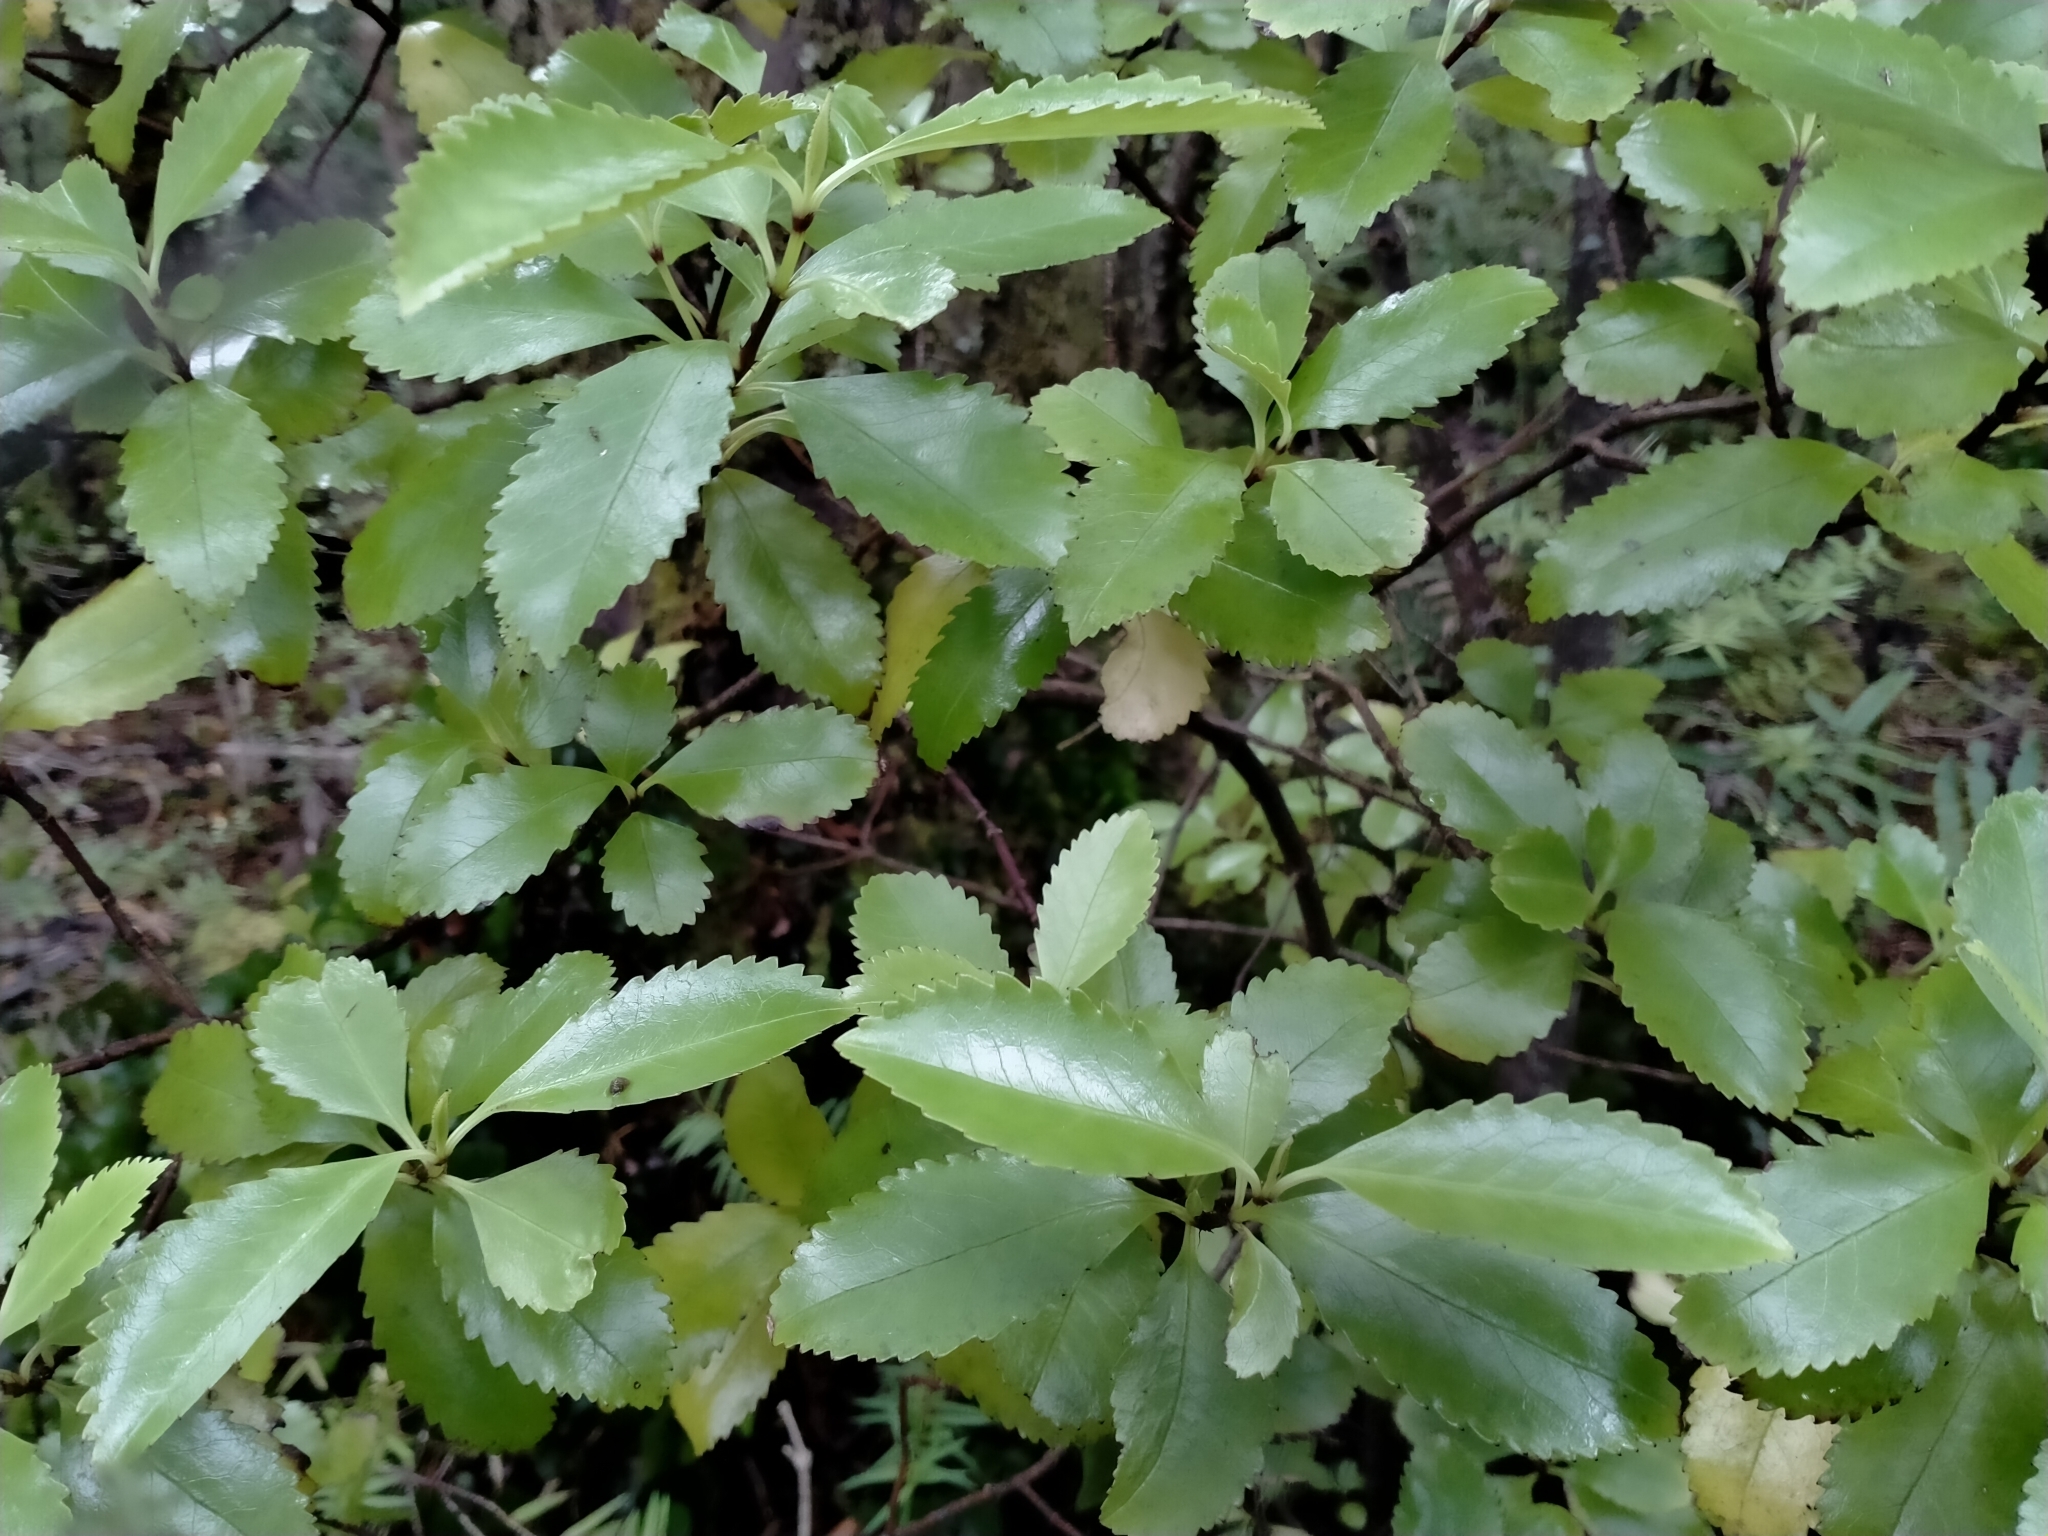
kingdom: Plantae
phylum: Tracheophyta
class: Magnoliopsida
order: Chloranthales
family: Chloranthaceae
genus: Ascarina
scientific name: Ascarina lucida
